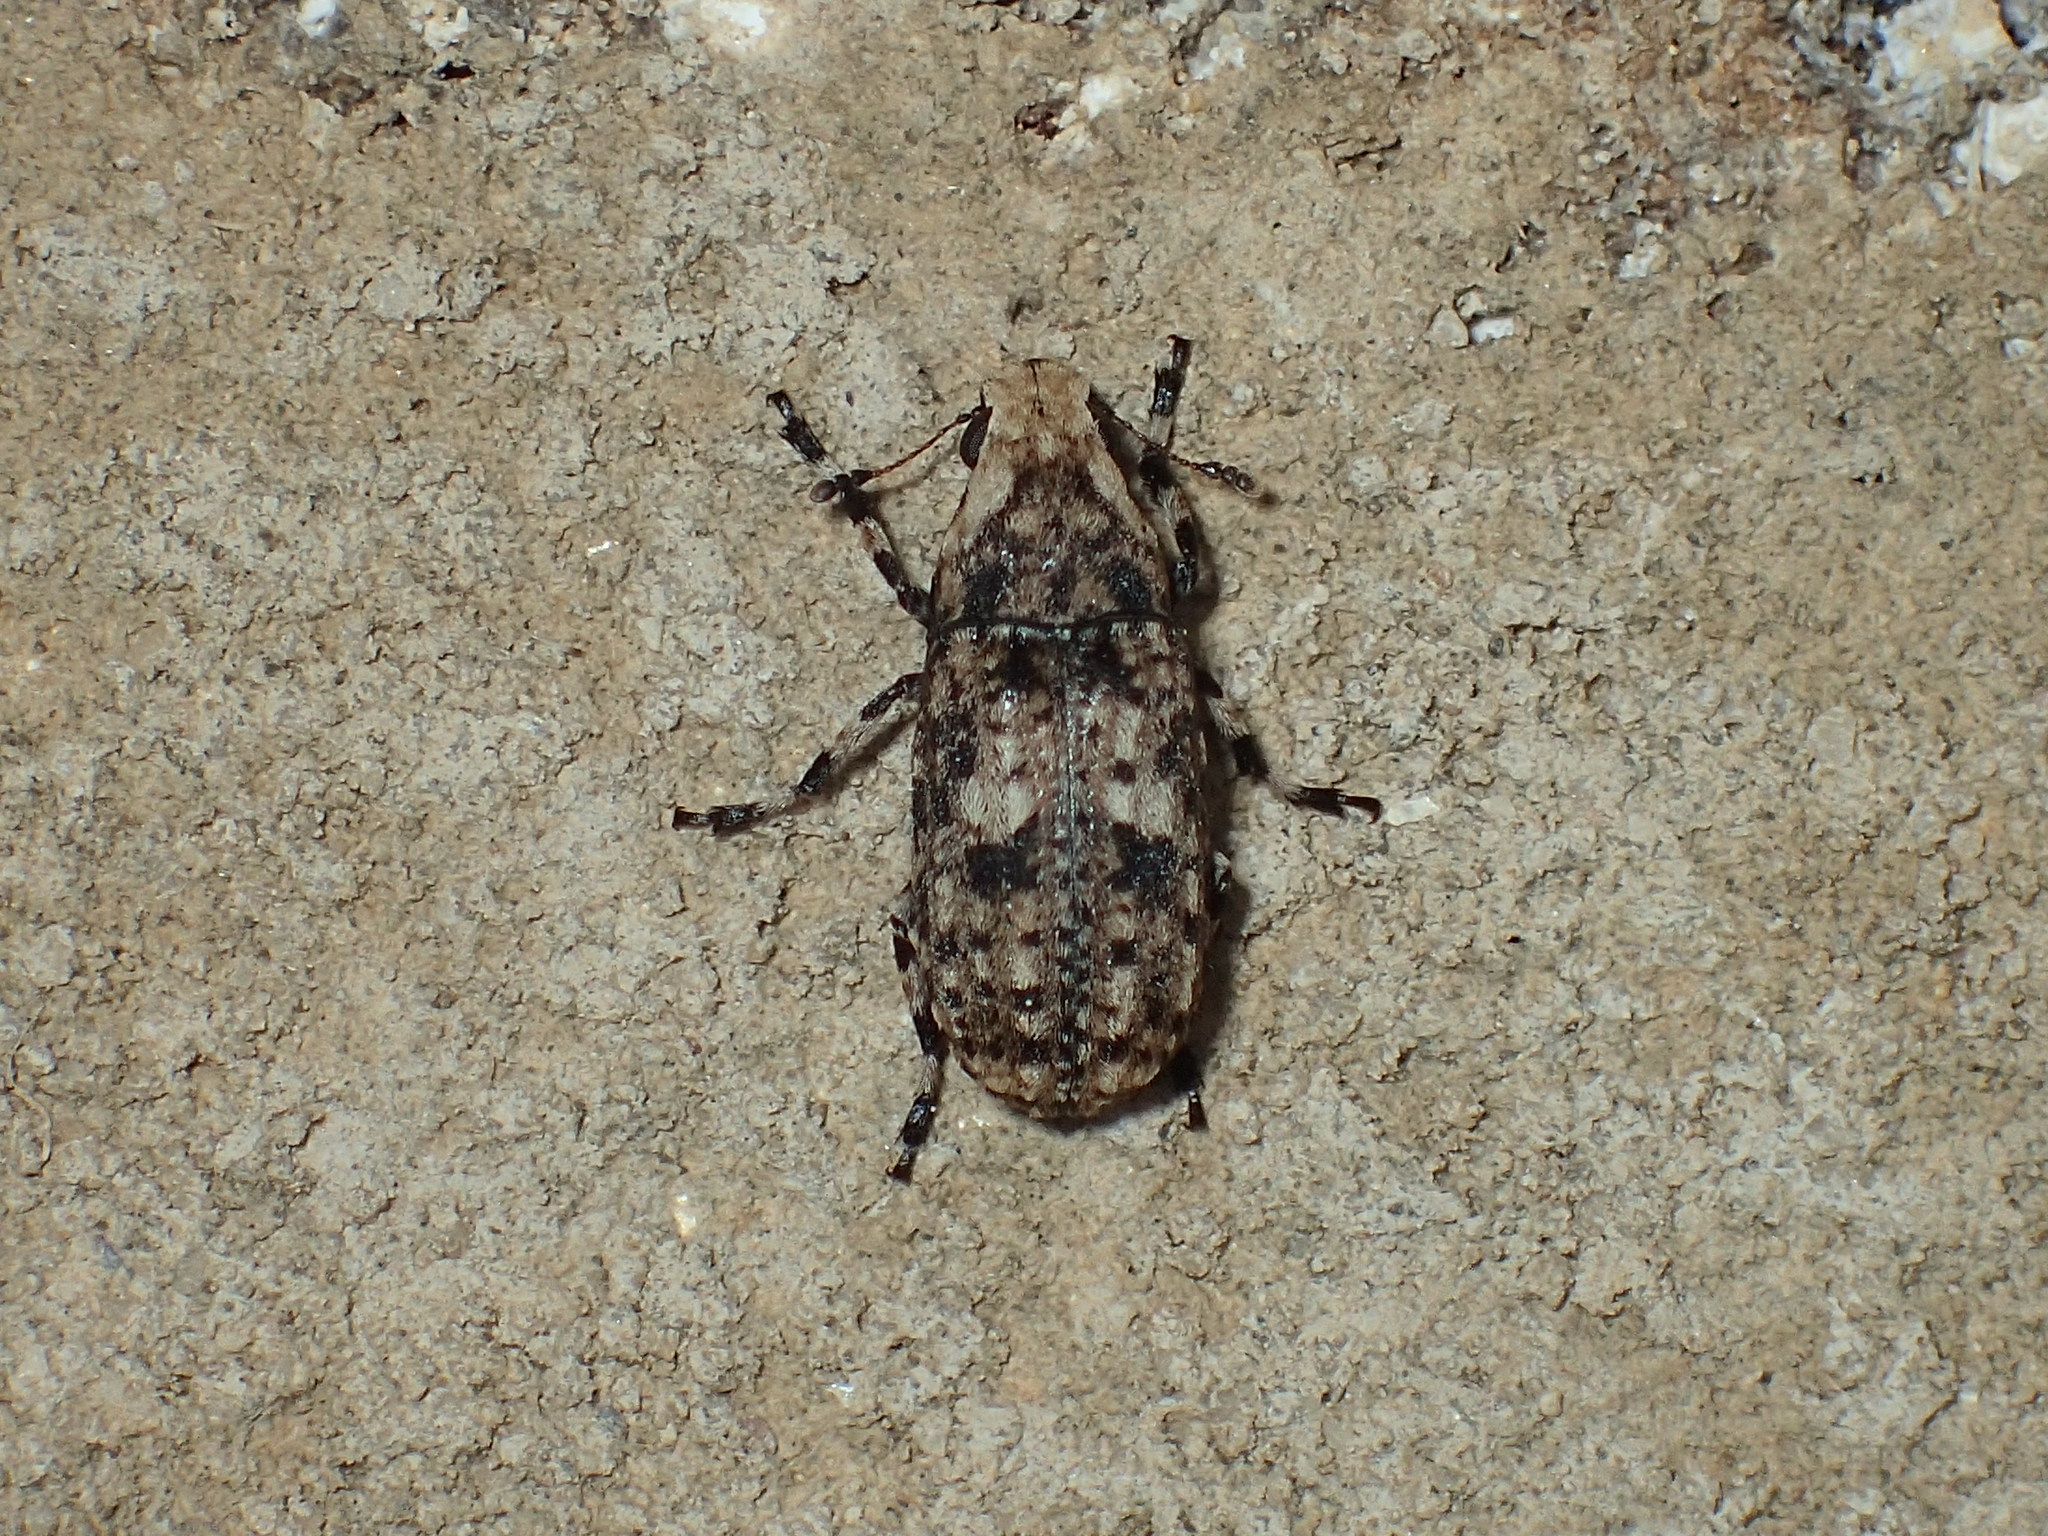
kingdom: Animalia
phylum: Arthropoda
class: Insecta
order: Coleoptera
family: Anthribidae
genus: Euparius
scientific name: Euparius marmoreus
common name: Marbled fungus weevil
